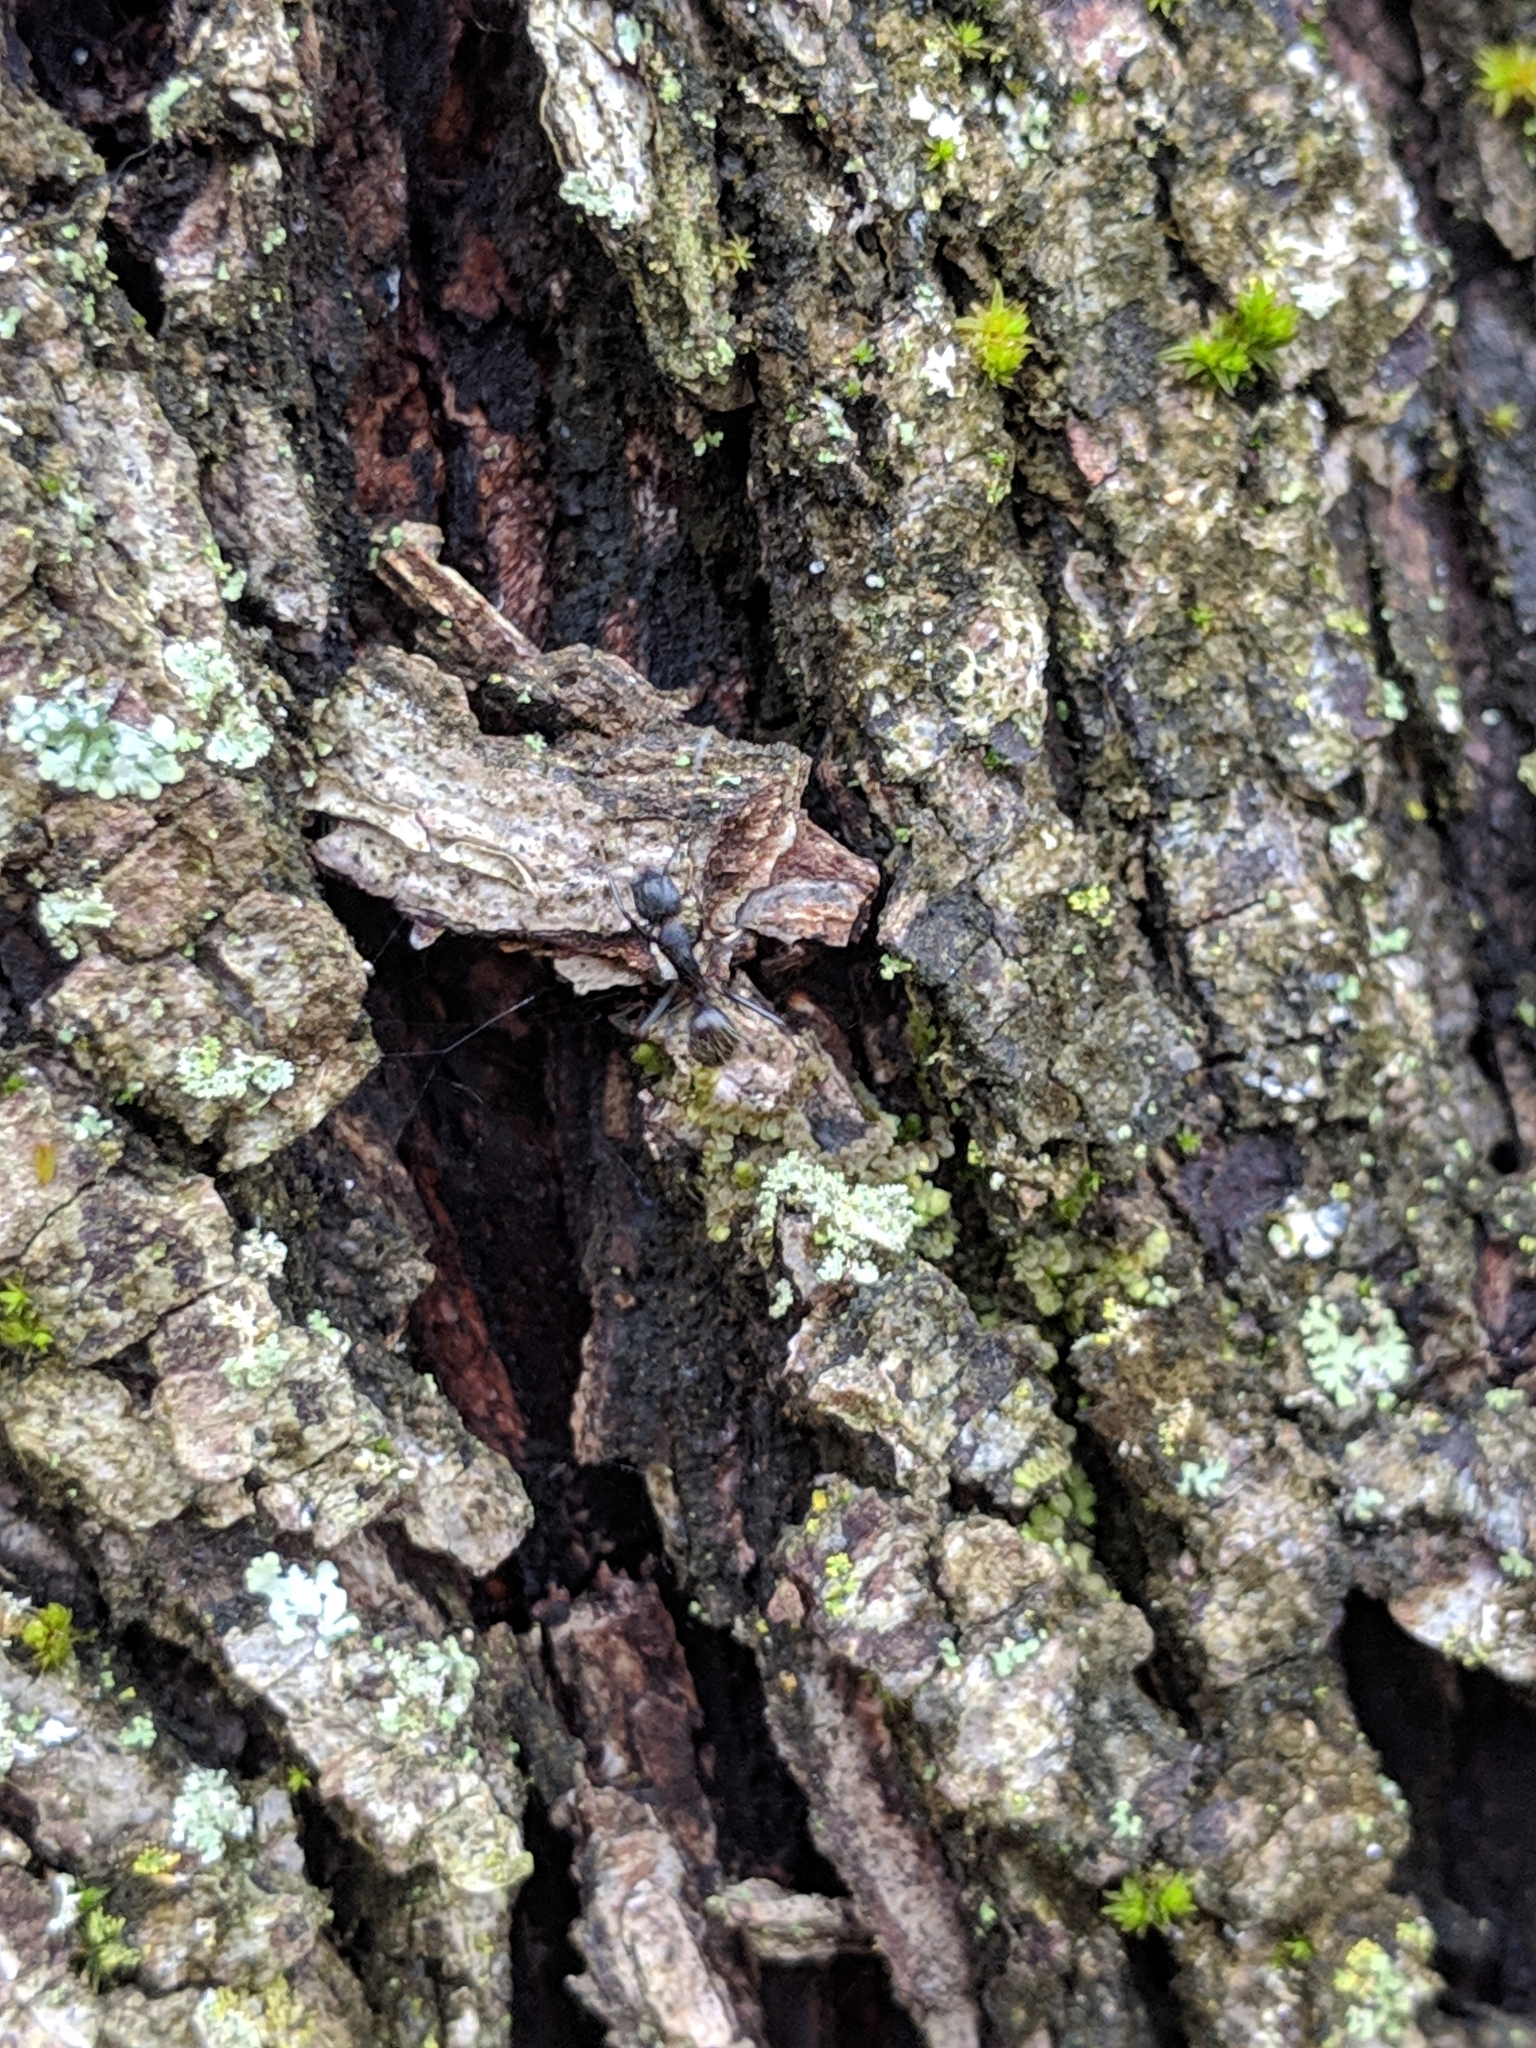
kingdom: Animalia
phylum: Arthropoda
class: Insecta
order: Hymenoptera
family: Formicidae
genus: Camponotus
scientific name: Camponotus pennsylvanicus
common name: Black carpenter ant
